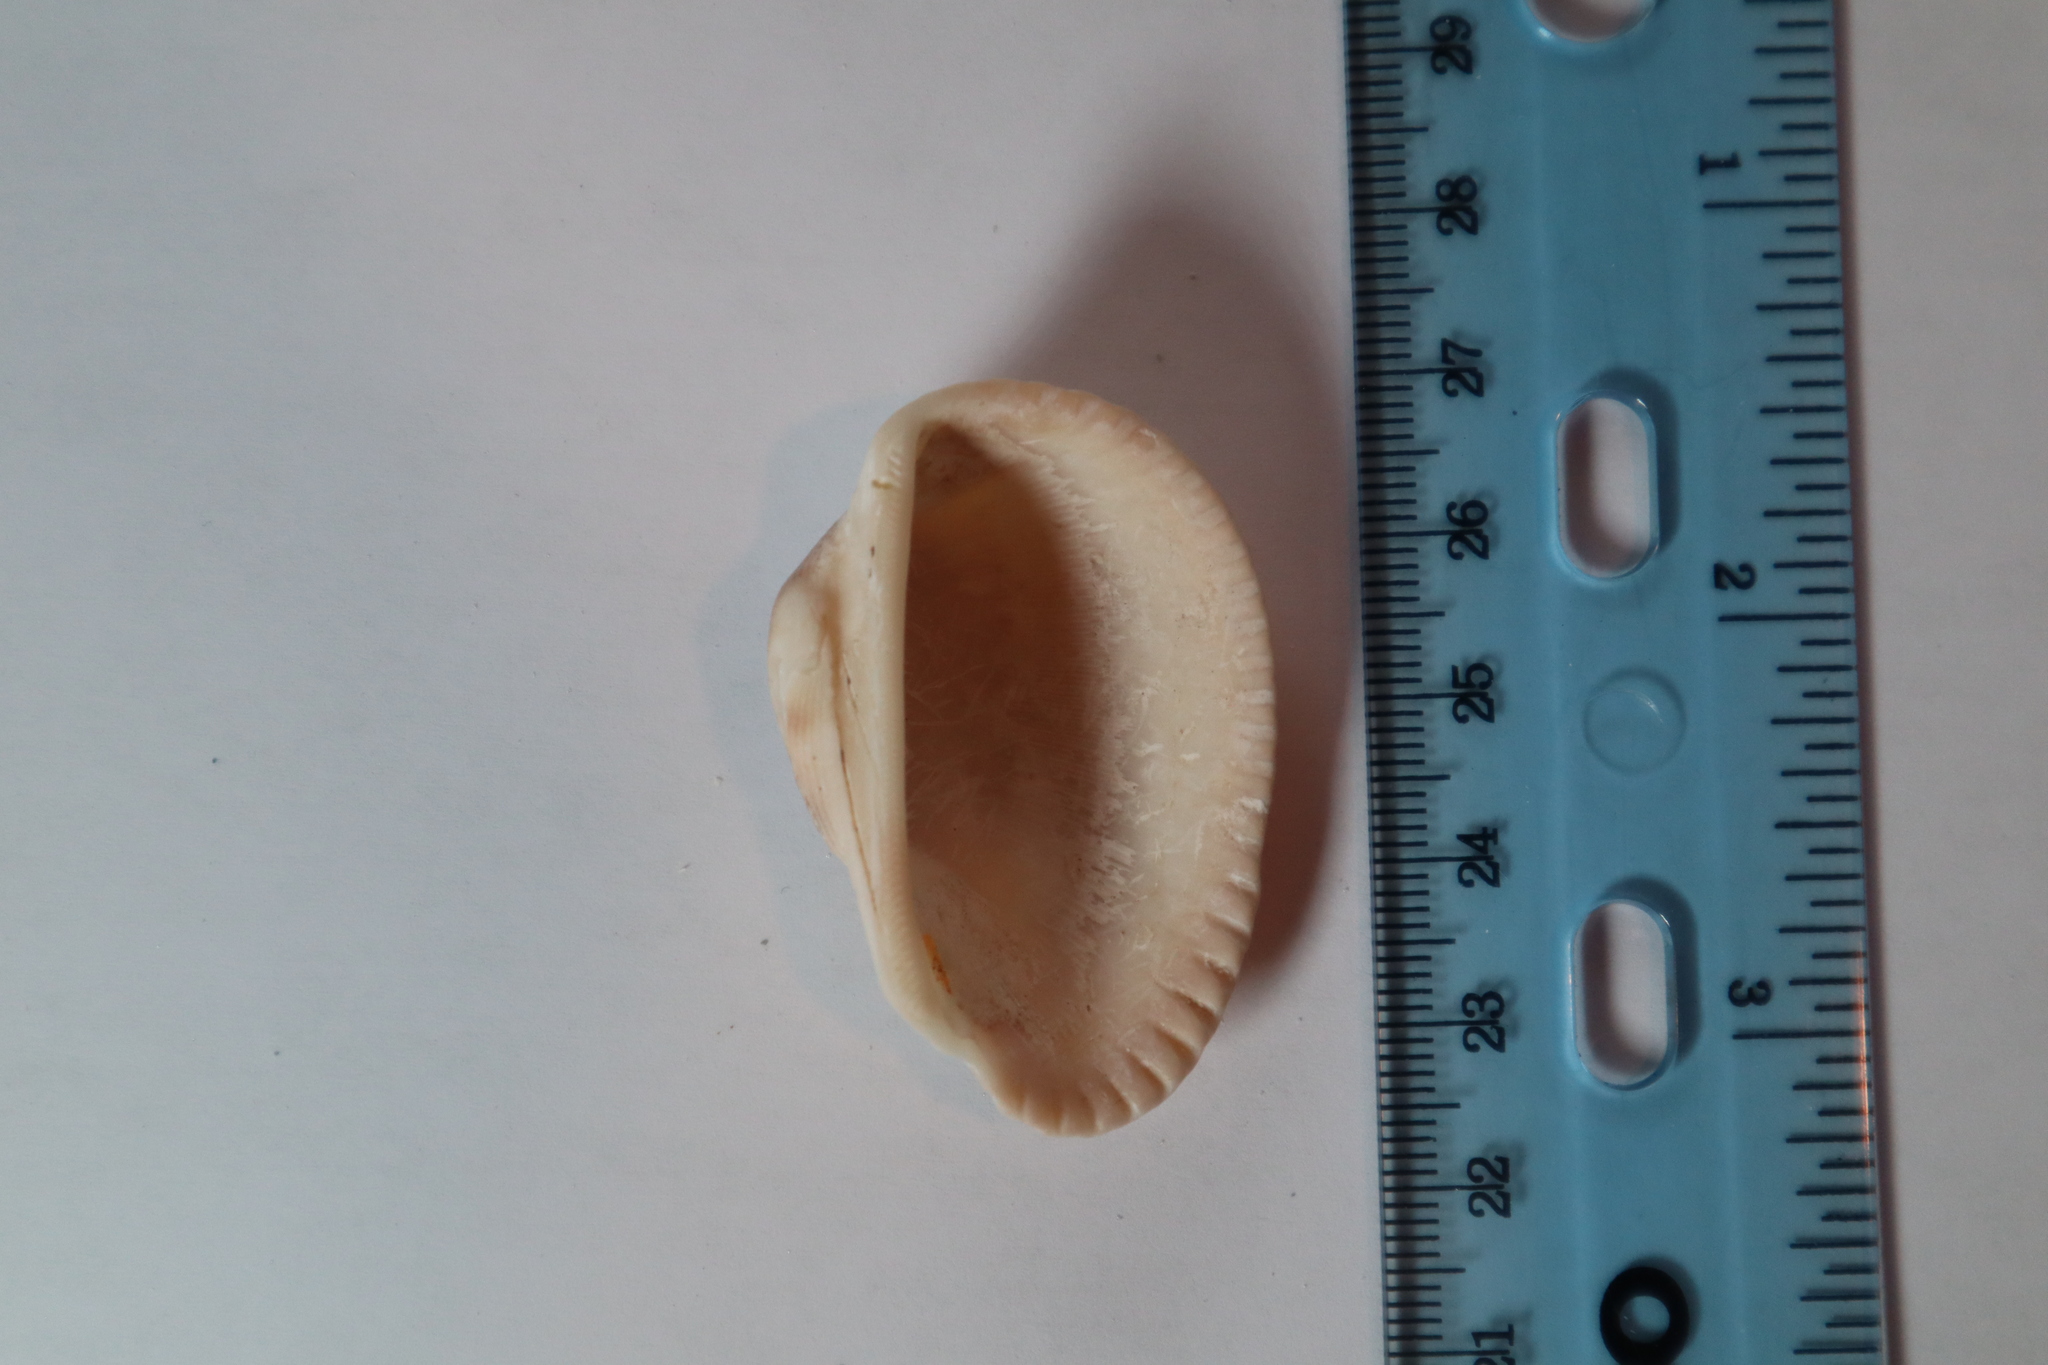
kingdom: Animalia
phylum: Mollusca
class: Bivalvia
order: Arcida
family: Arcidae
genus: Anadara
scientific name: Anadara secticostata
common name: Cut-ribbed ark
